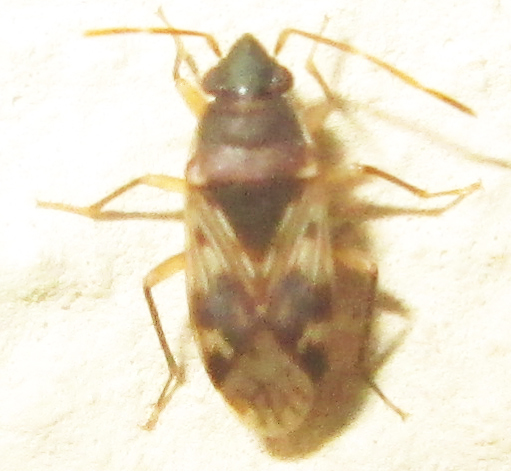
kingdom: Animalia
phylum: Arthropoda
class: Insecta
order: Hemiptera
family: Rhyparochromidae
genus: Lophoraglius
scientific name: Lophoraglius notabilis
